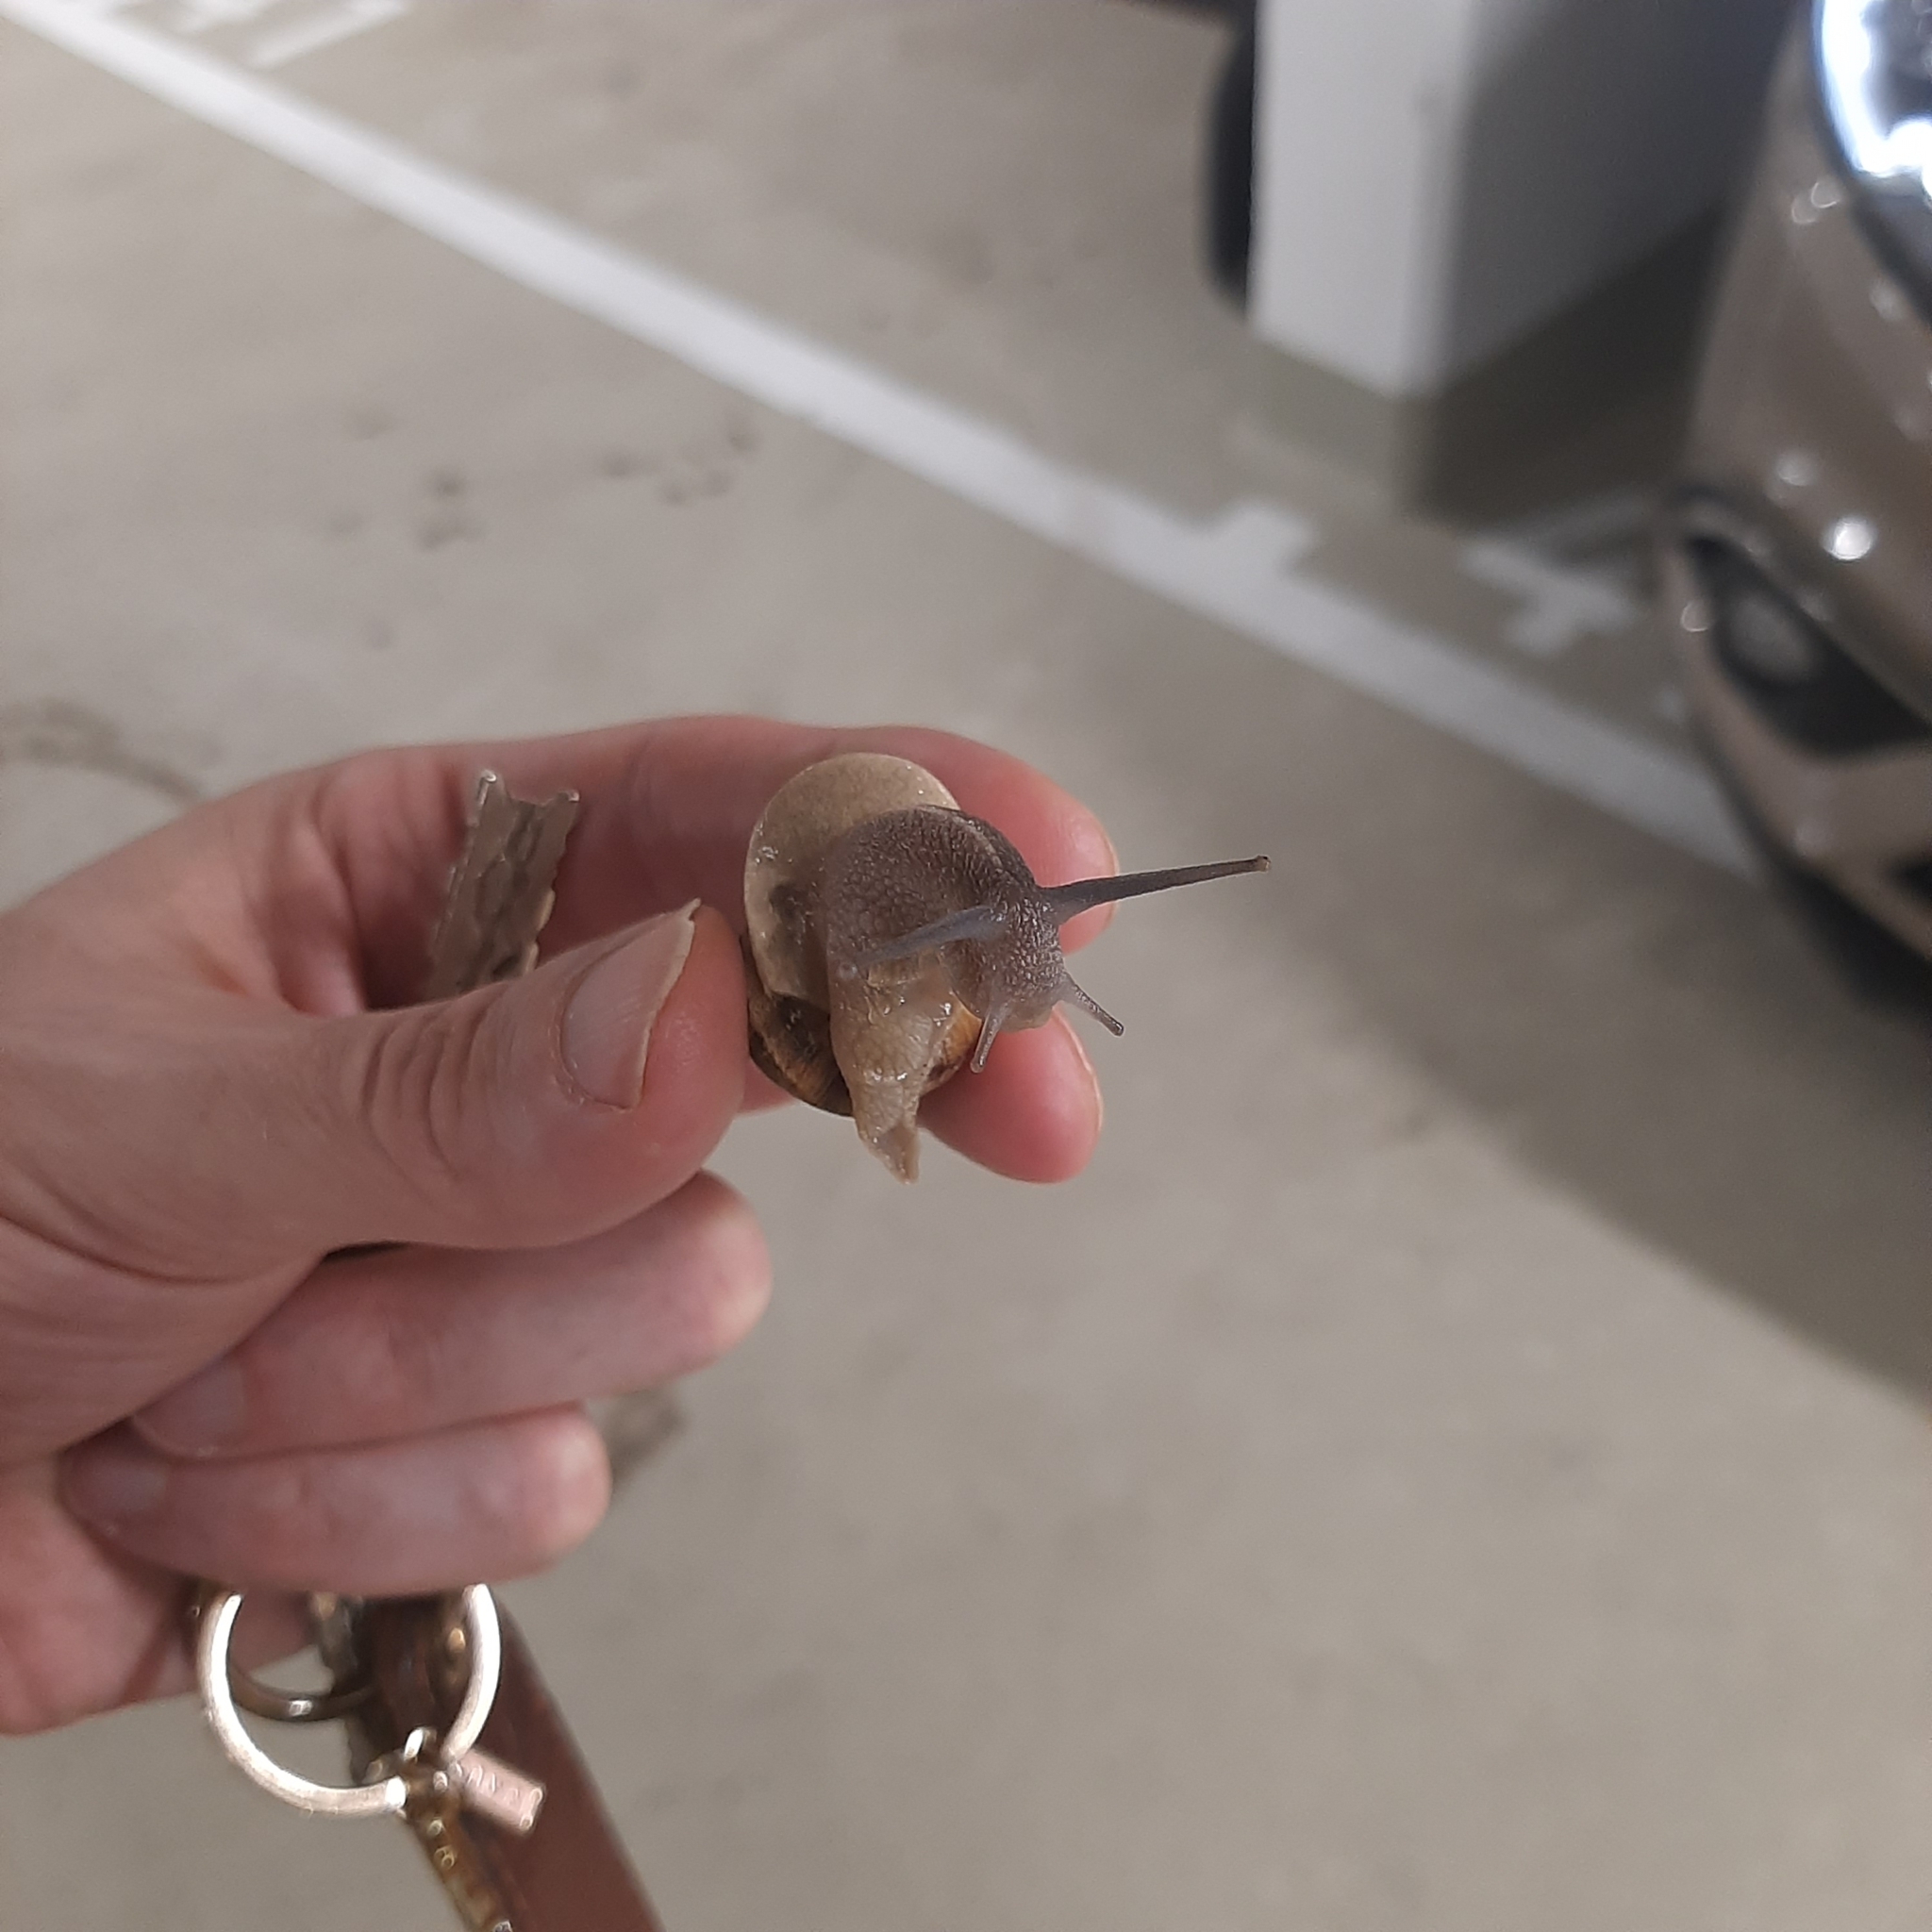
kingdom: Animalia
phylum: Mollusca
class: Gastropoda
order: Stylommatophora
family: Helicidae
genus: Cornu
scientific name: Cornu aspersum
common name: Brown garden snail
